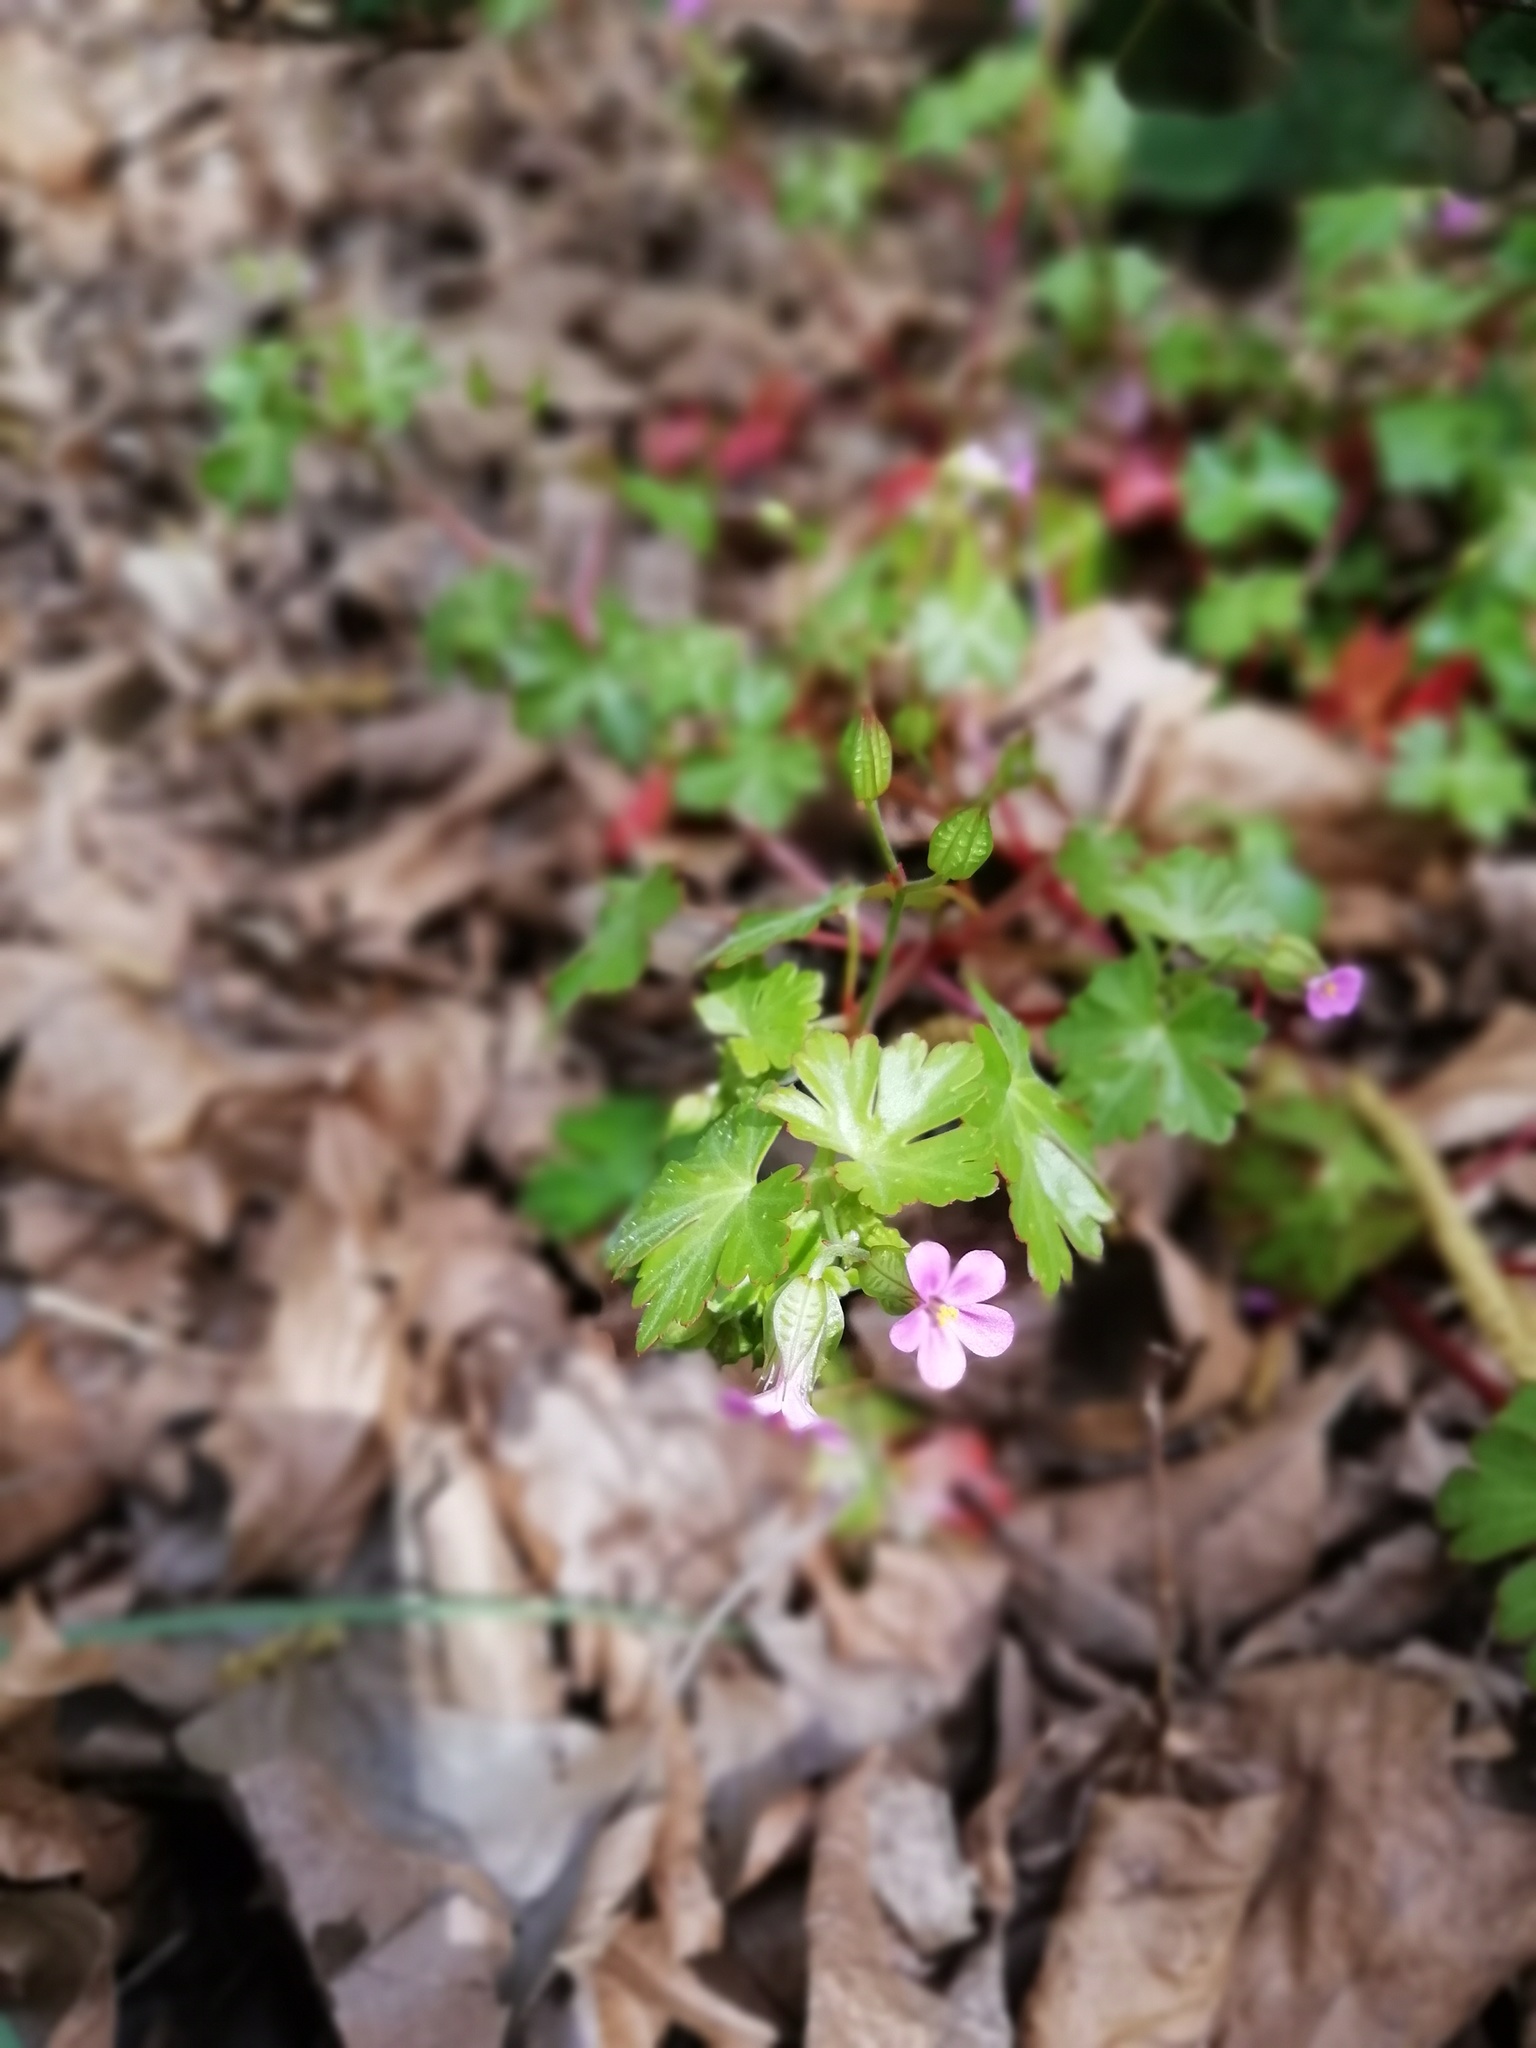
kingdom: Plantae
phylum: Tracheophyta
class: Magnoliopsida
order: Geraniales
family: Geraniaceae
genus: Geranium
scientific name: Geranium lucidum
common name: Shining crane's-bill
